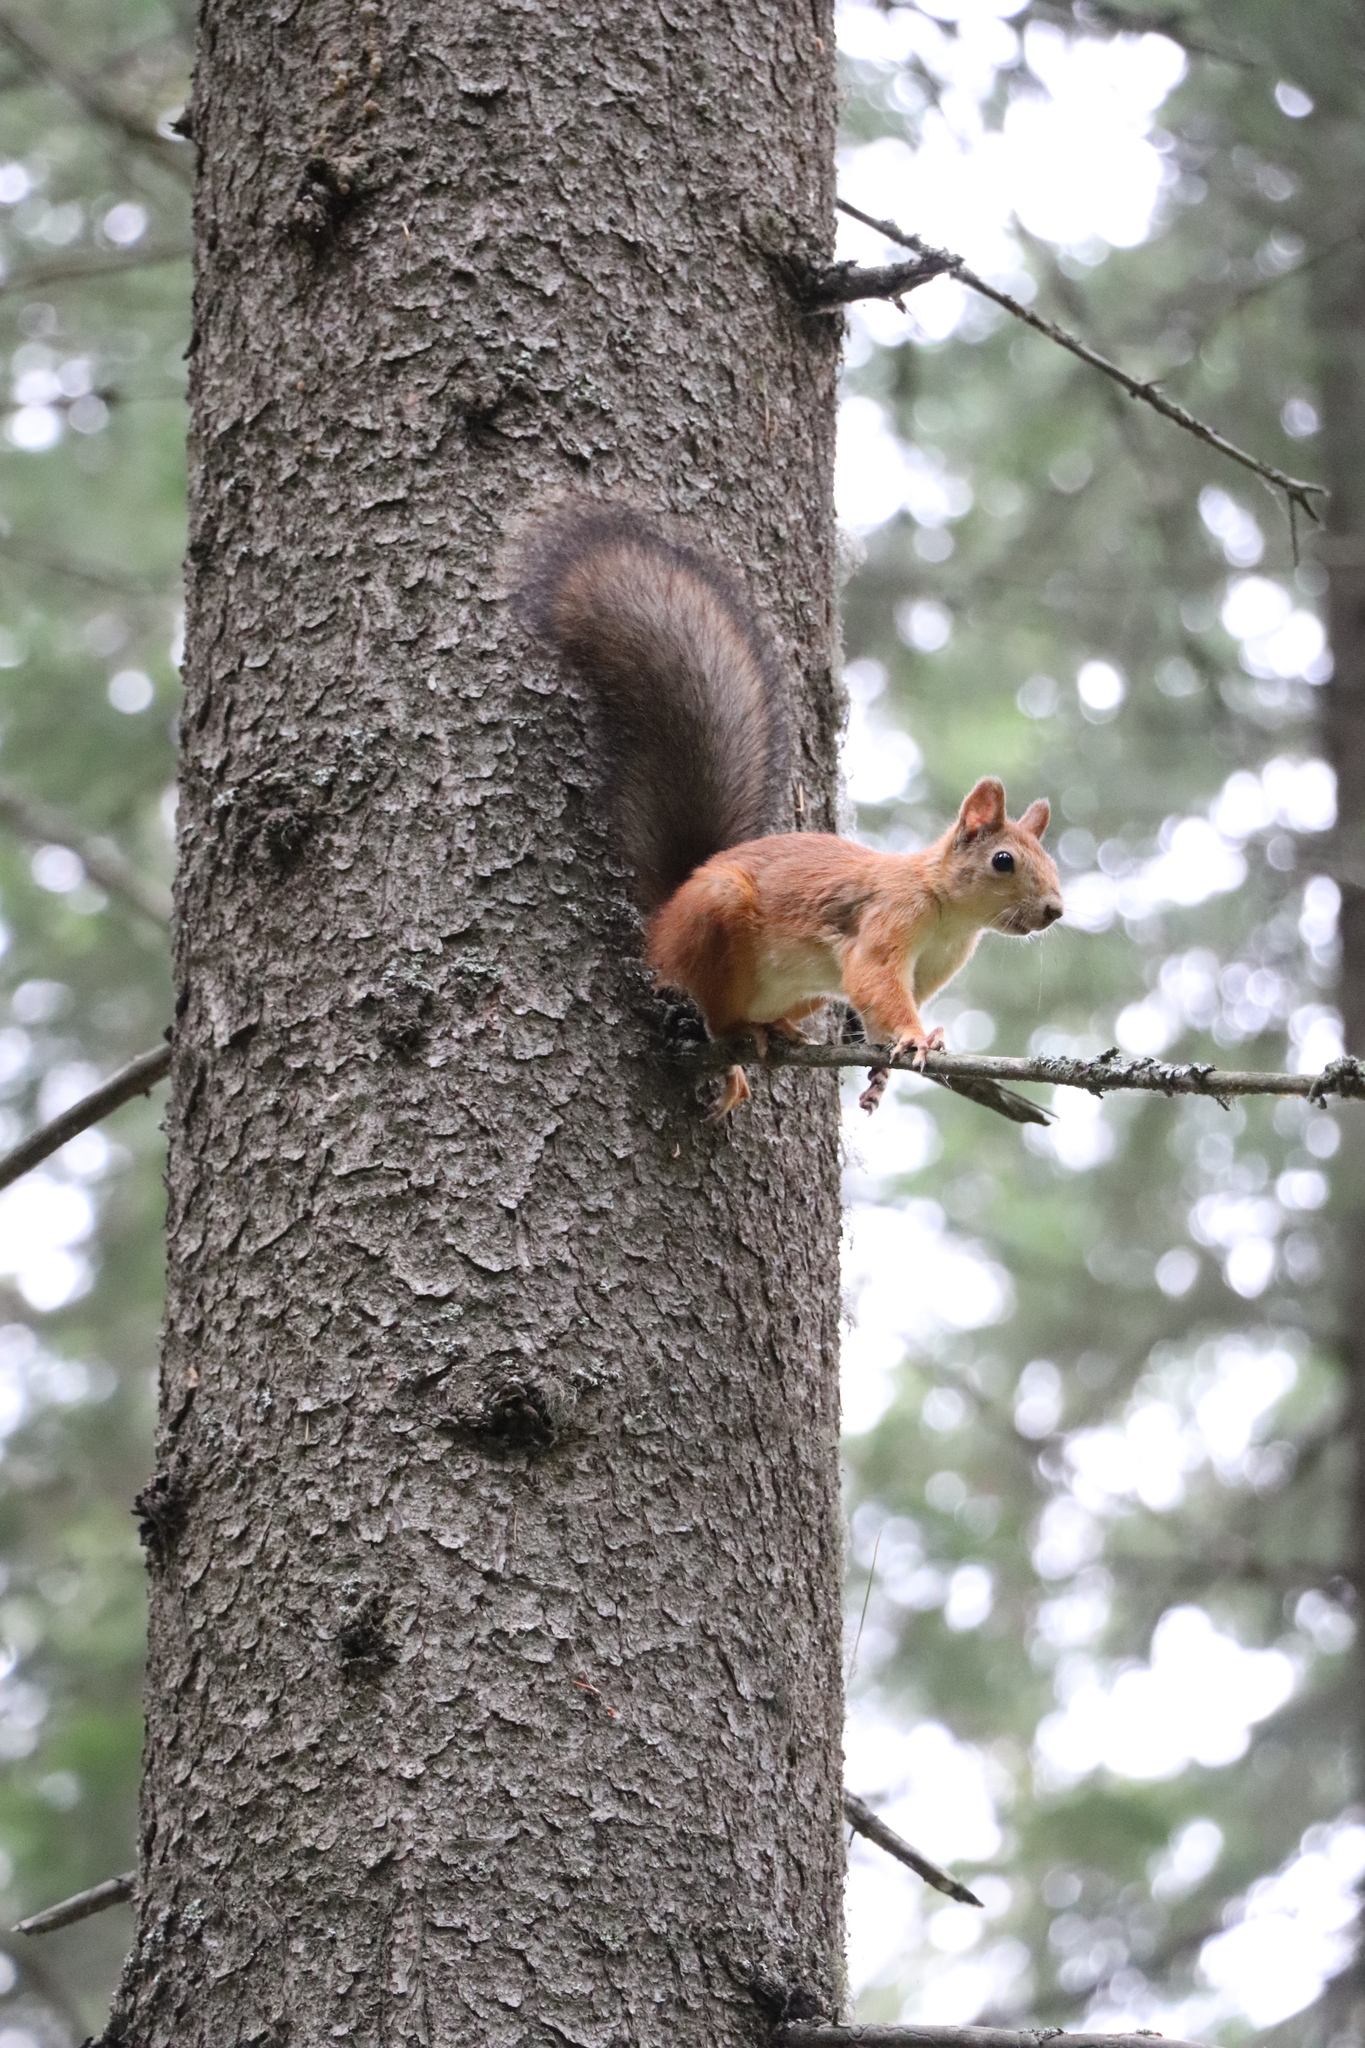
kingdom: Animalia
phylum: Chordata
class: Mammalia
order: Rodentia
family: Sciuridae
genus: Sciurus
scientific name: Sciurus vulgaris
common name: Eurasian red squirrel
